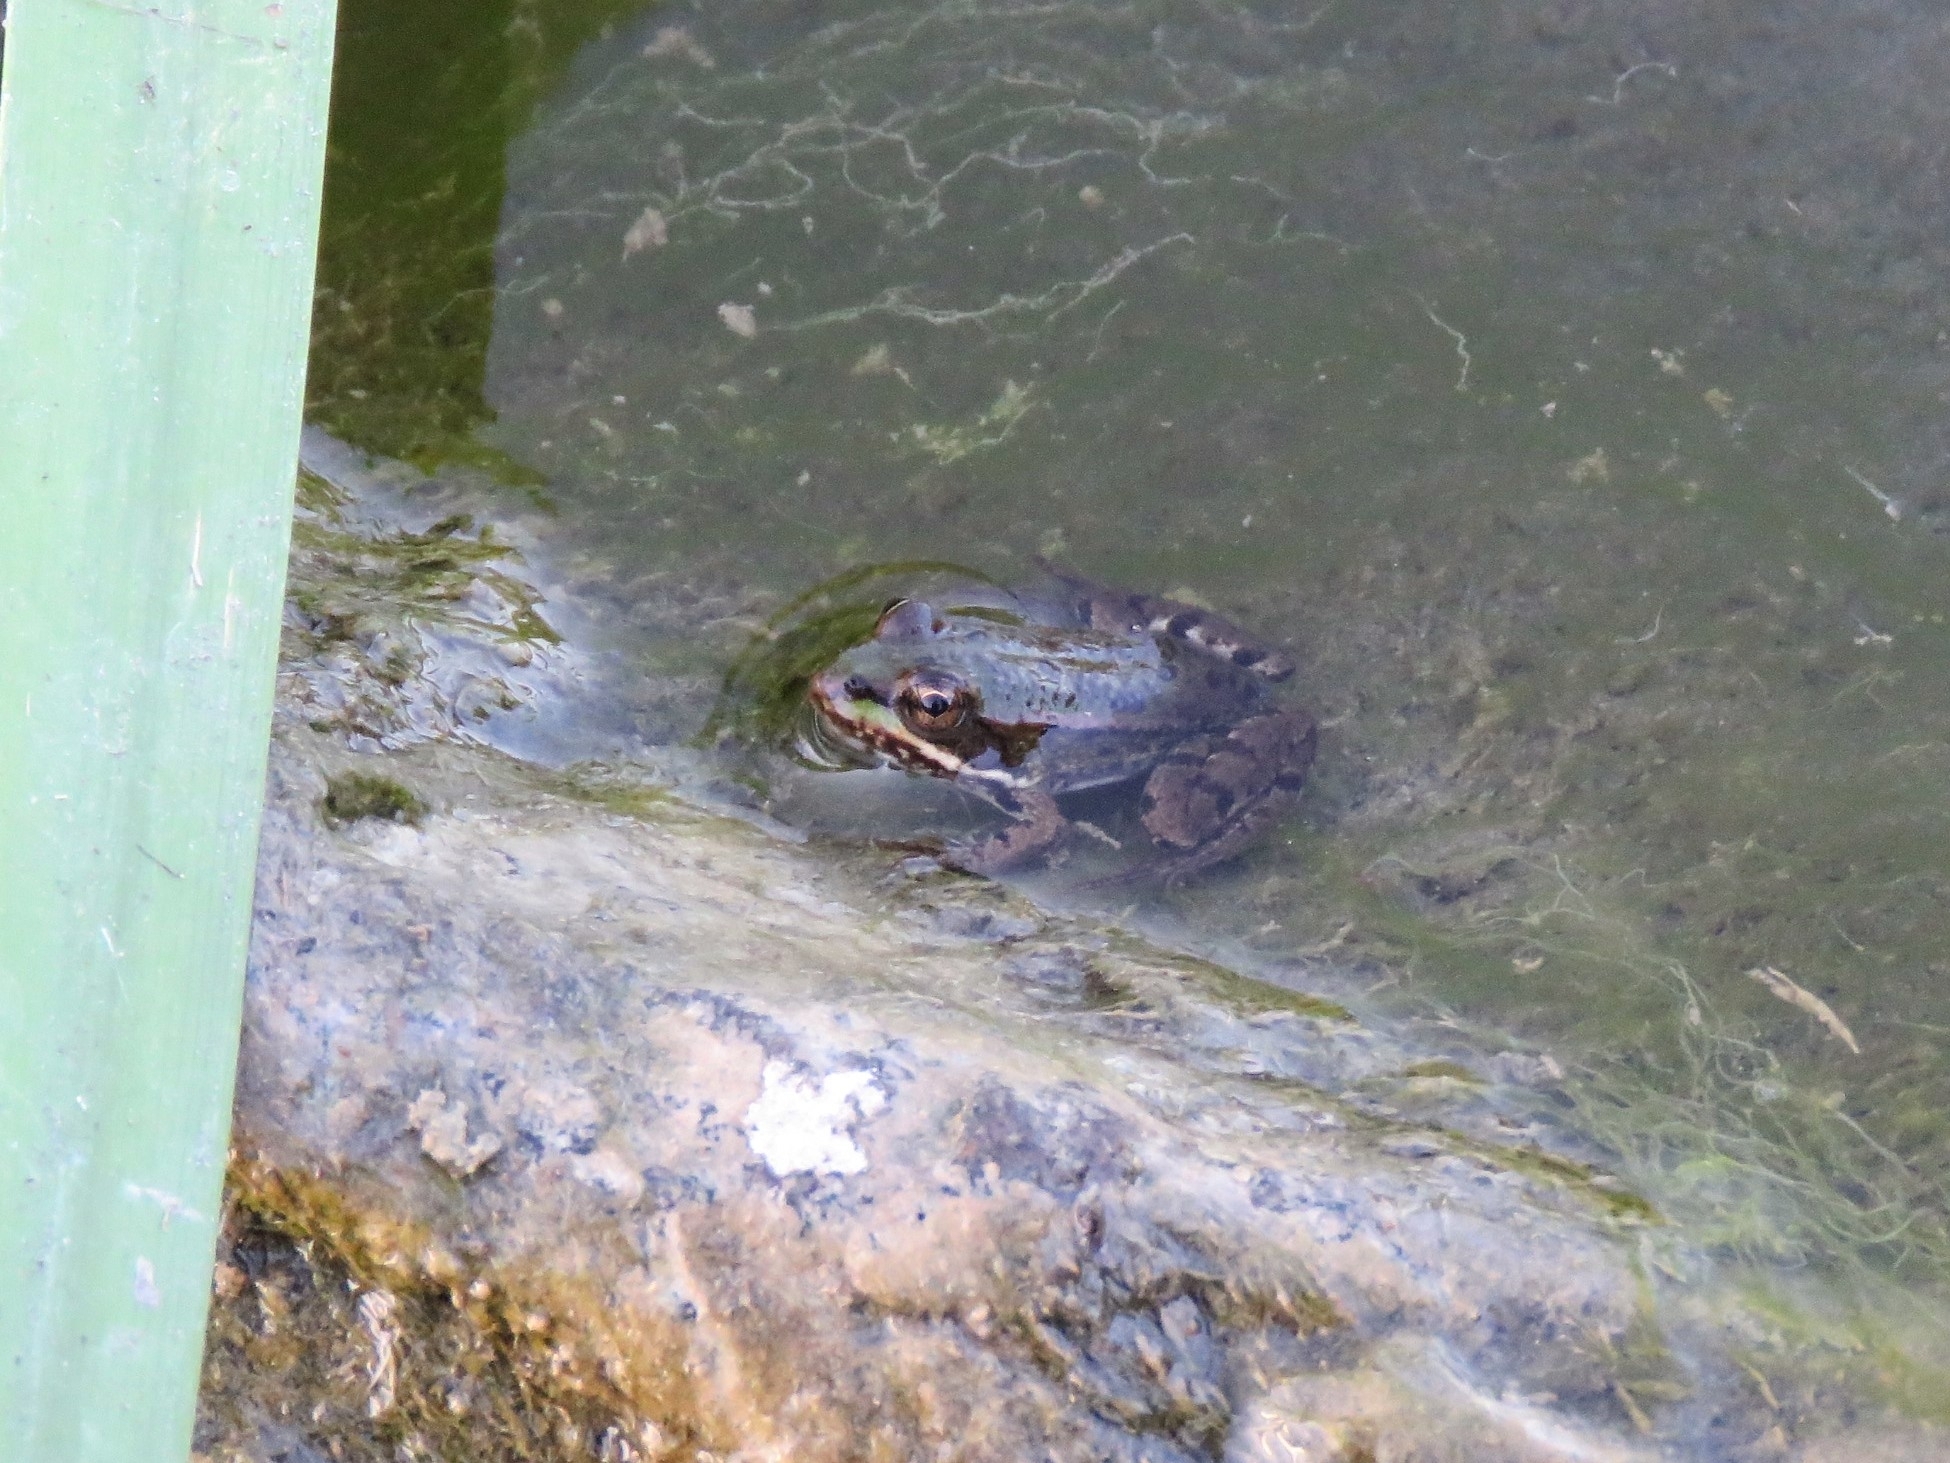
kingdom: Animalia
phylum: Chordata
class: Amphibia
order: Anura
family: Ranidae
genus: Pelophylax
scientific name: Pelophylax perezi
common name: Perez's frog
